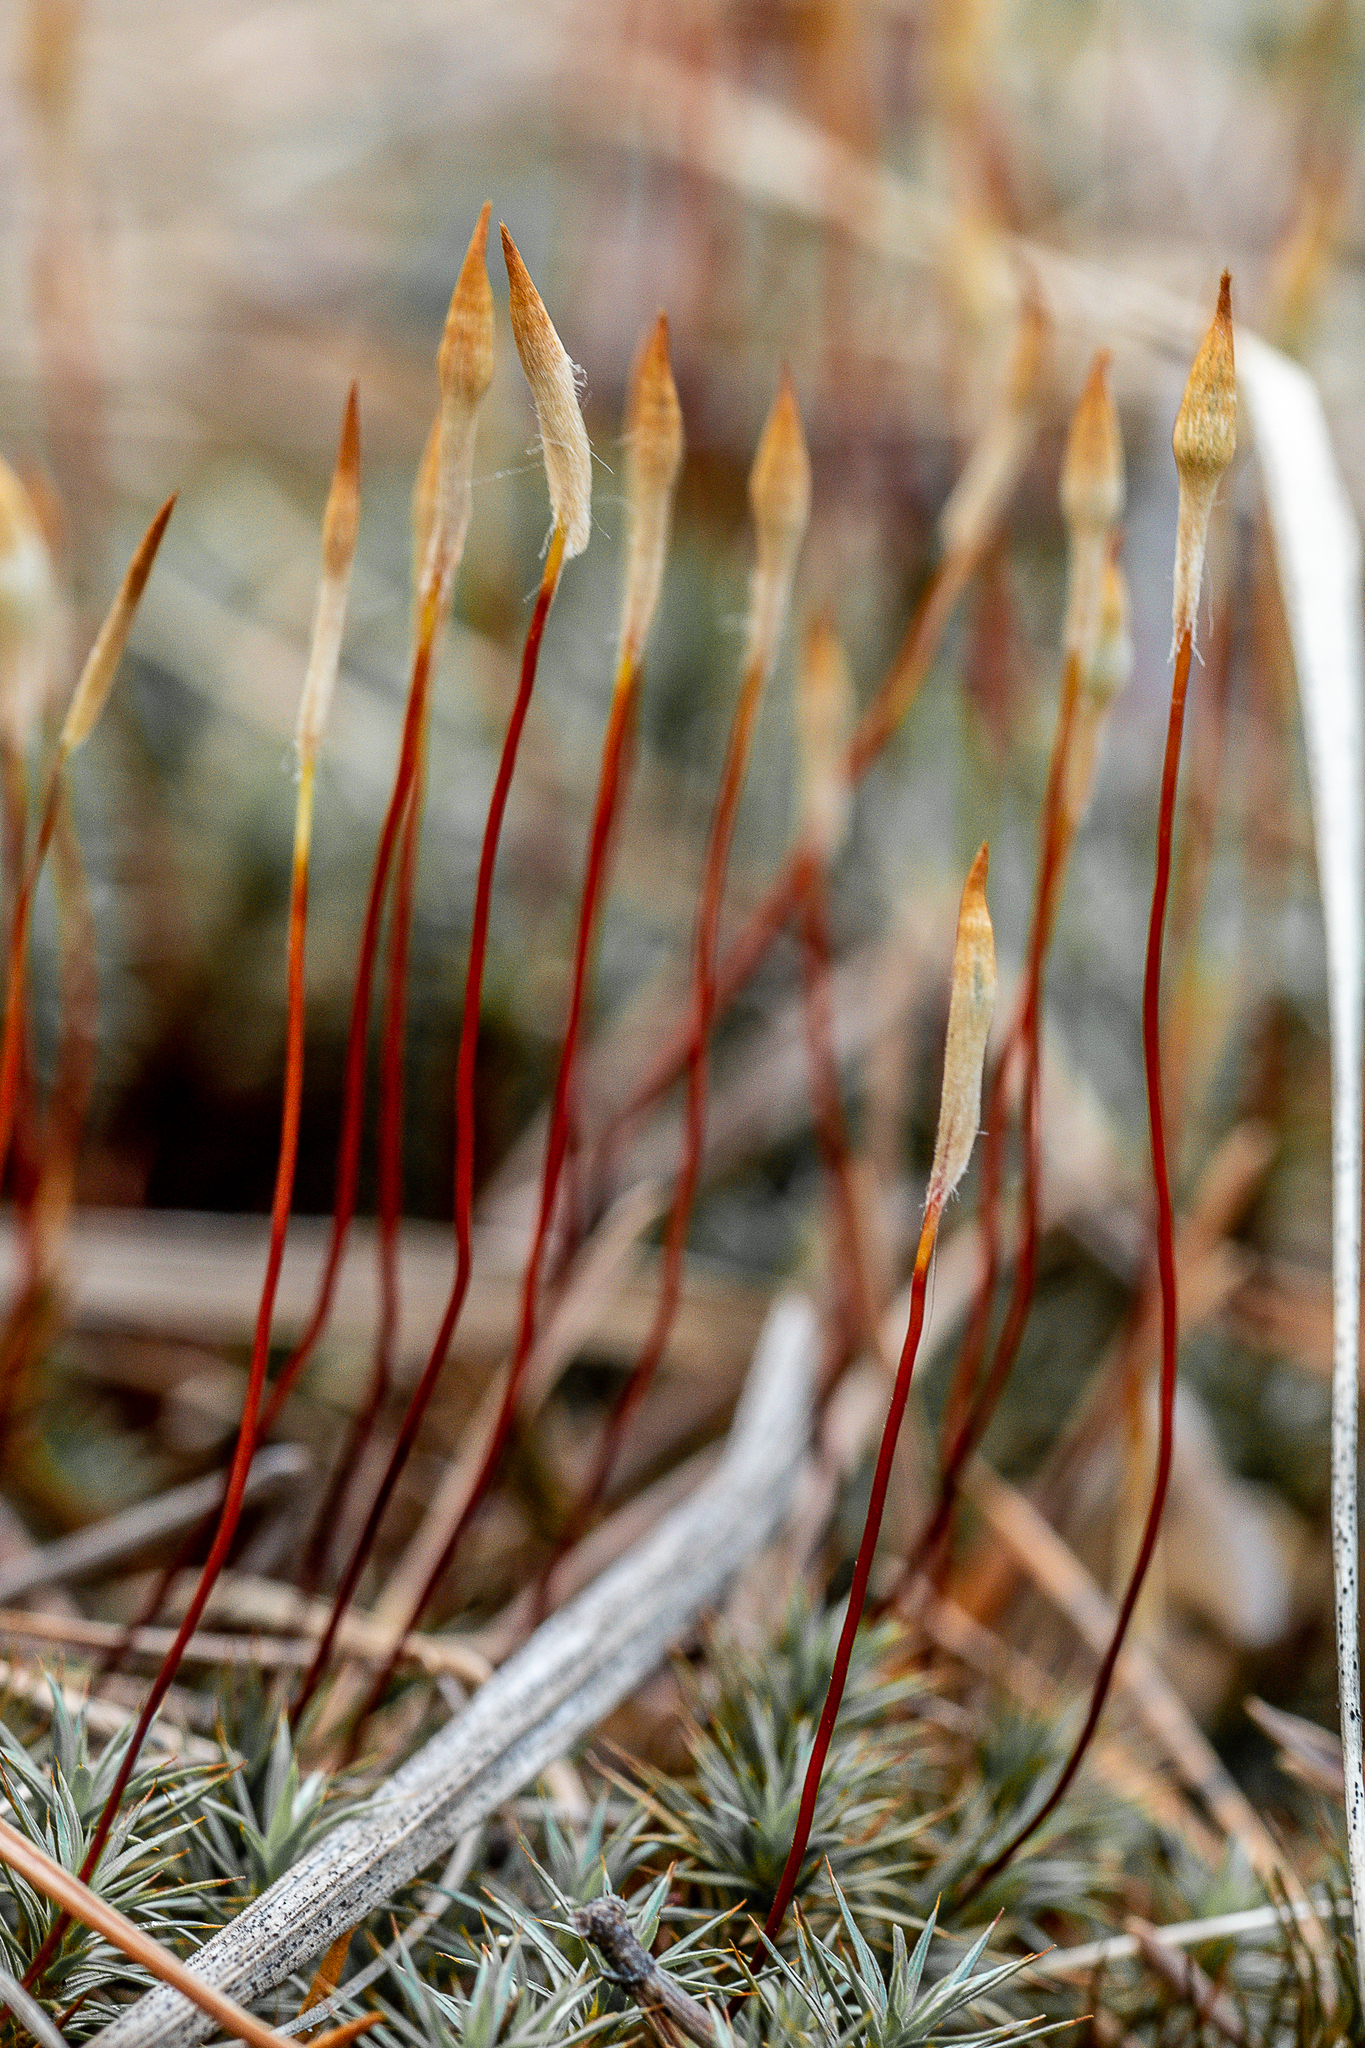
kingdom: Plantae
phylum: Bryophyta
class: Polytrichopsida
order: Polytrichales
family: Polytrichaceae
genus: Polytrichum
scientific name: Polytrichum juniperinum
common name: Juniper haircap moss
